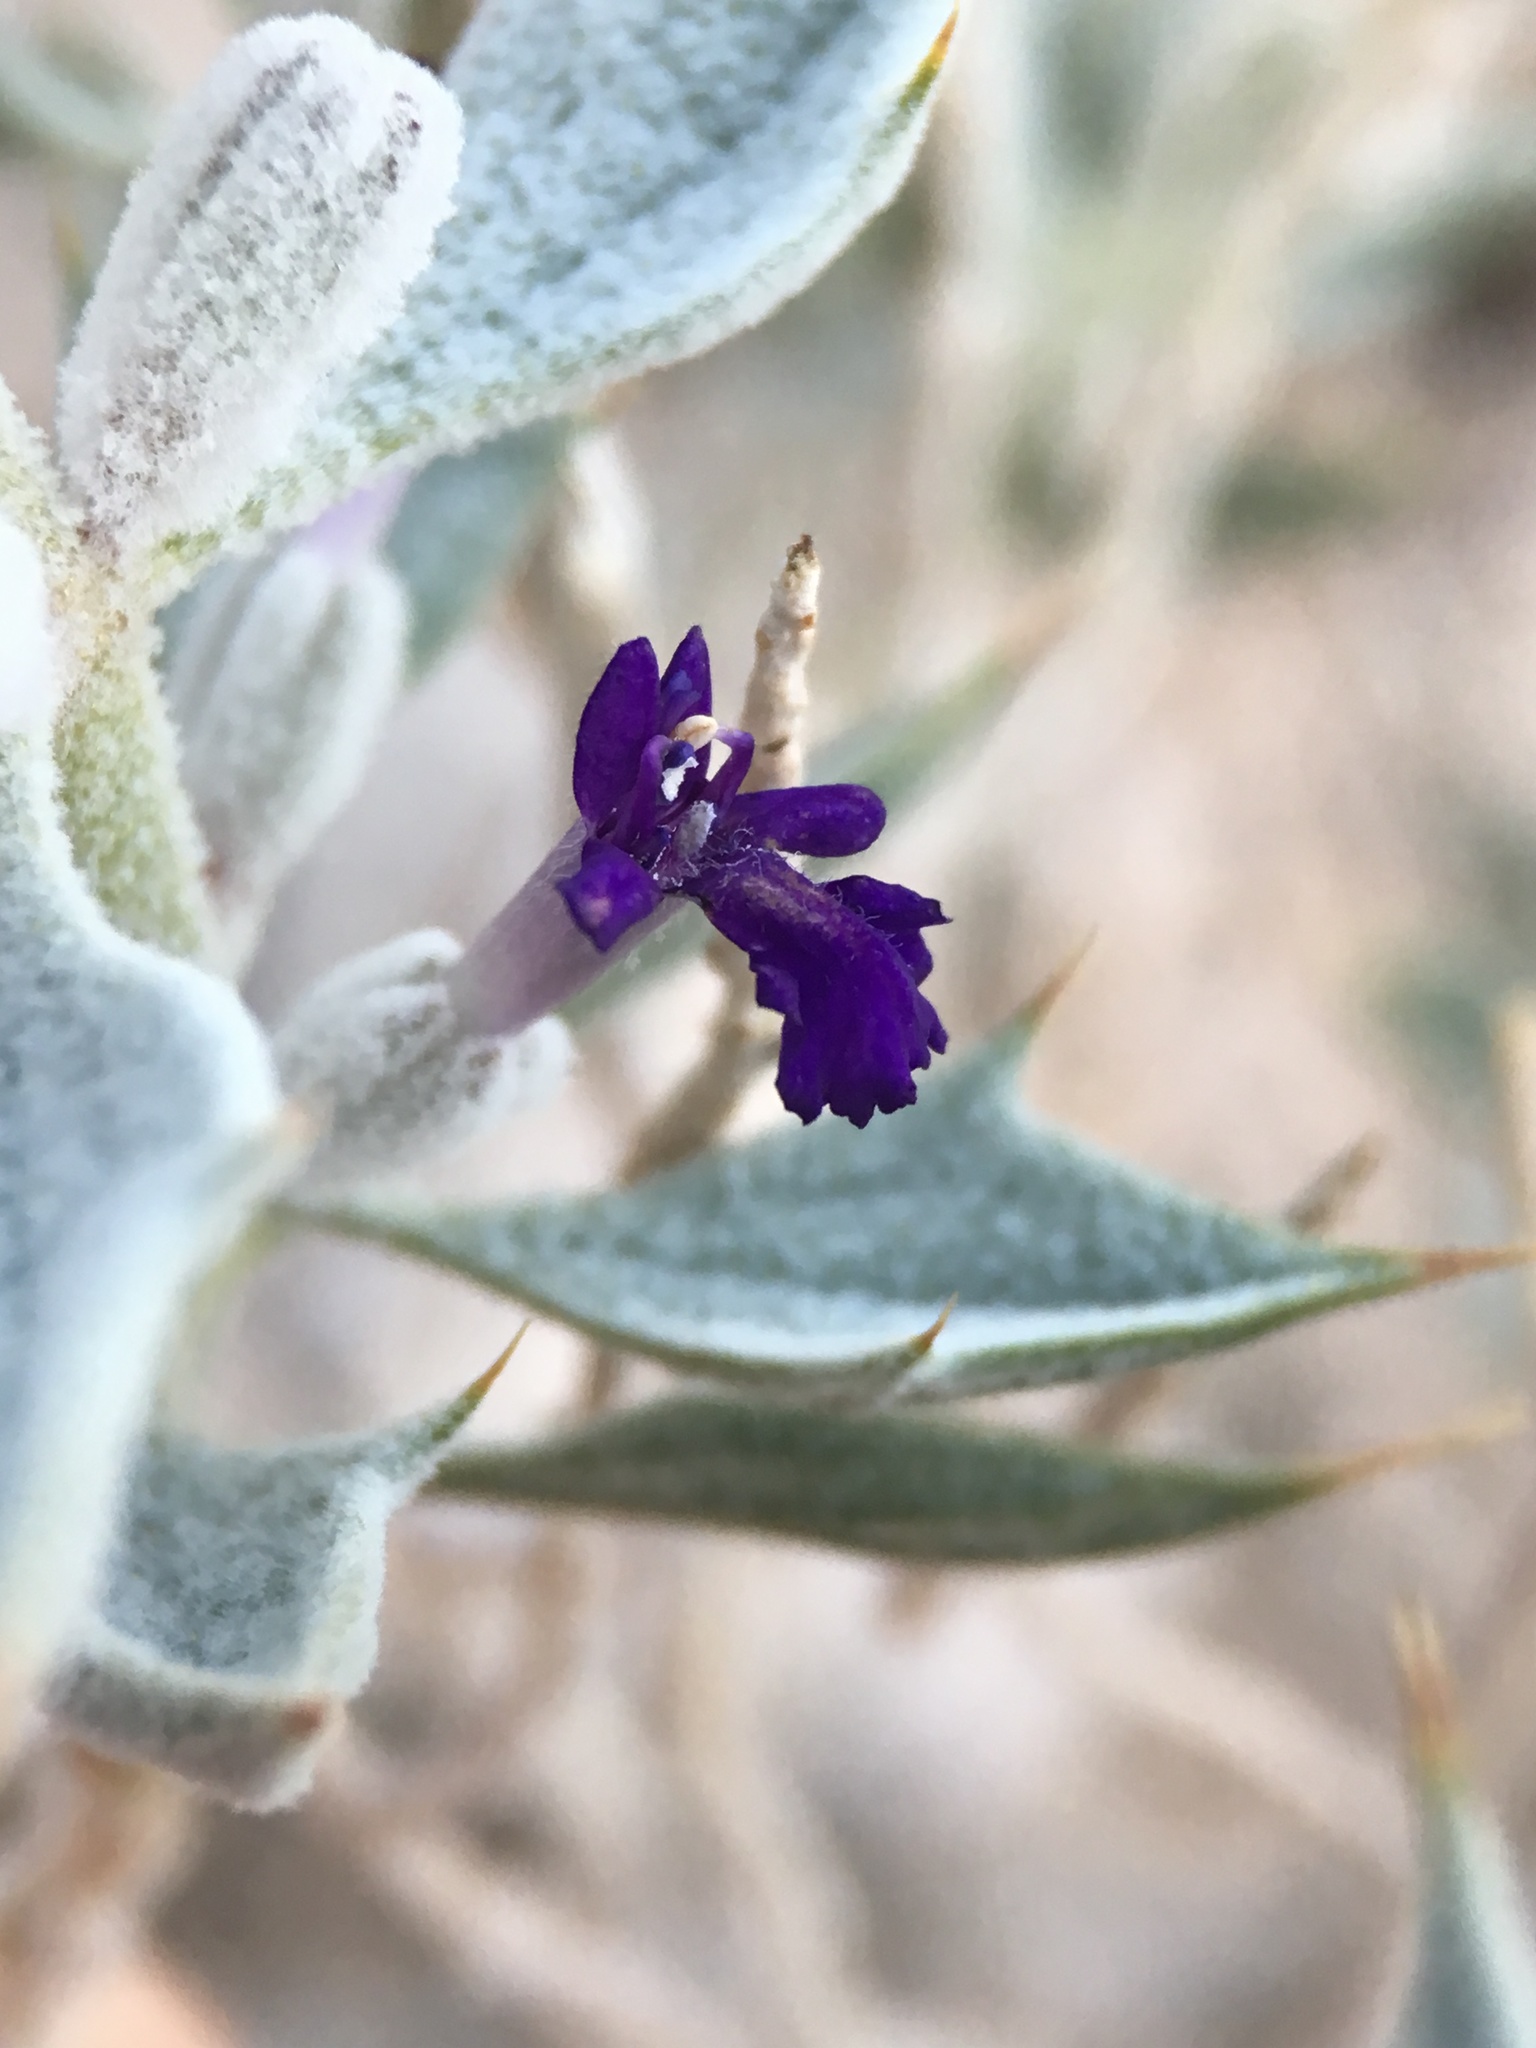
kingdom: Plantae
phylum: Tracheophyta
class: Magnoliopsida
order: Lamiales
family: Lamiaceae
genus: Salvia
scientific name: Salvia funerea
